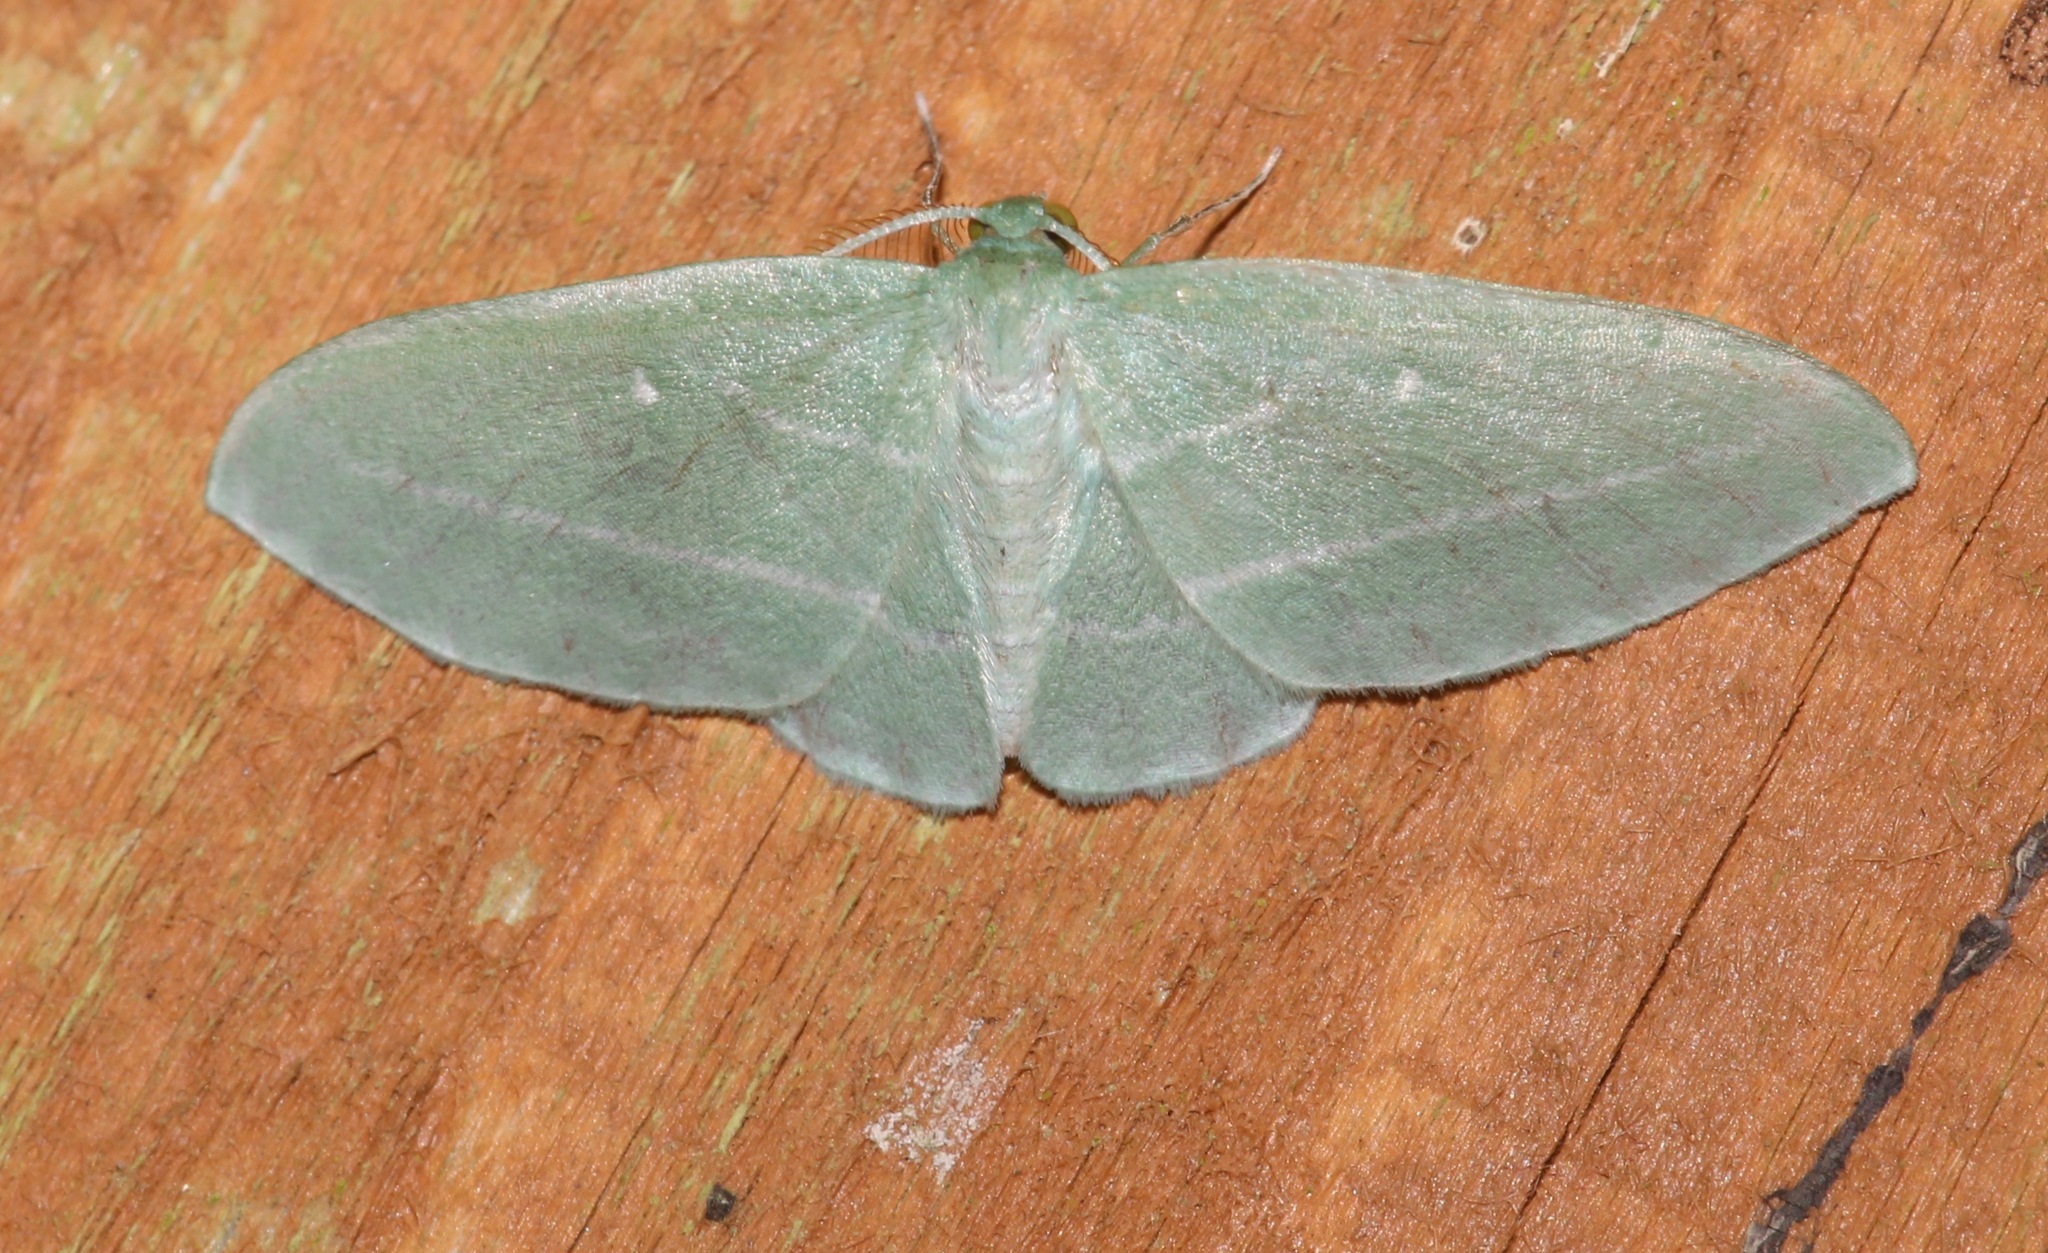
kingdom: Animalia
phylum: Arthropoda
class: Insecta
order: Lepidoptera
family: Geometridae
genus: Dyspteris
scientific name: Dyspteris abortivaria
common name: Bad-wing
